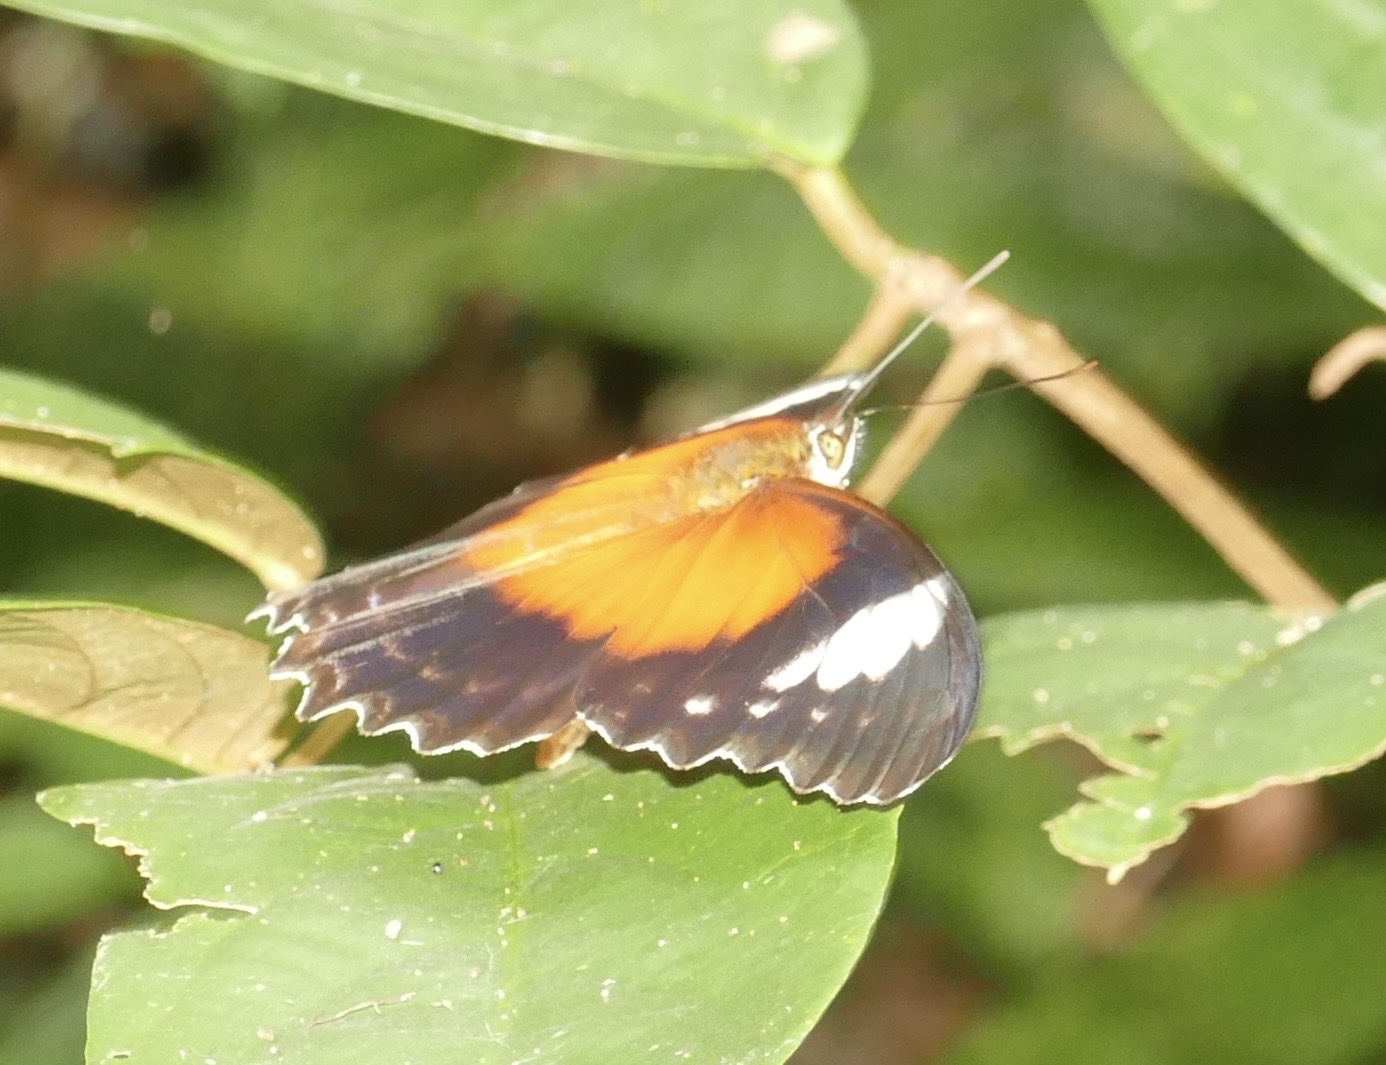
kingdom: Animalia
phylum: Arthropoda
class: Insecta
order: Lepidoptera
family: Nymphalidae
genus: Cethosia
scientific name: Cethosia cydippe
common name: Eastern red lacewing butterfly
